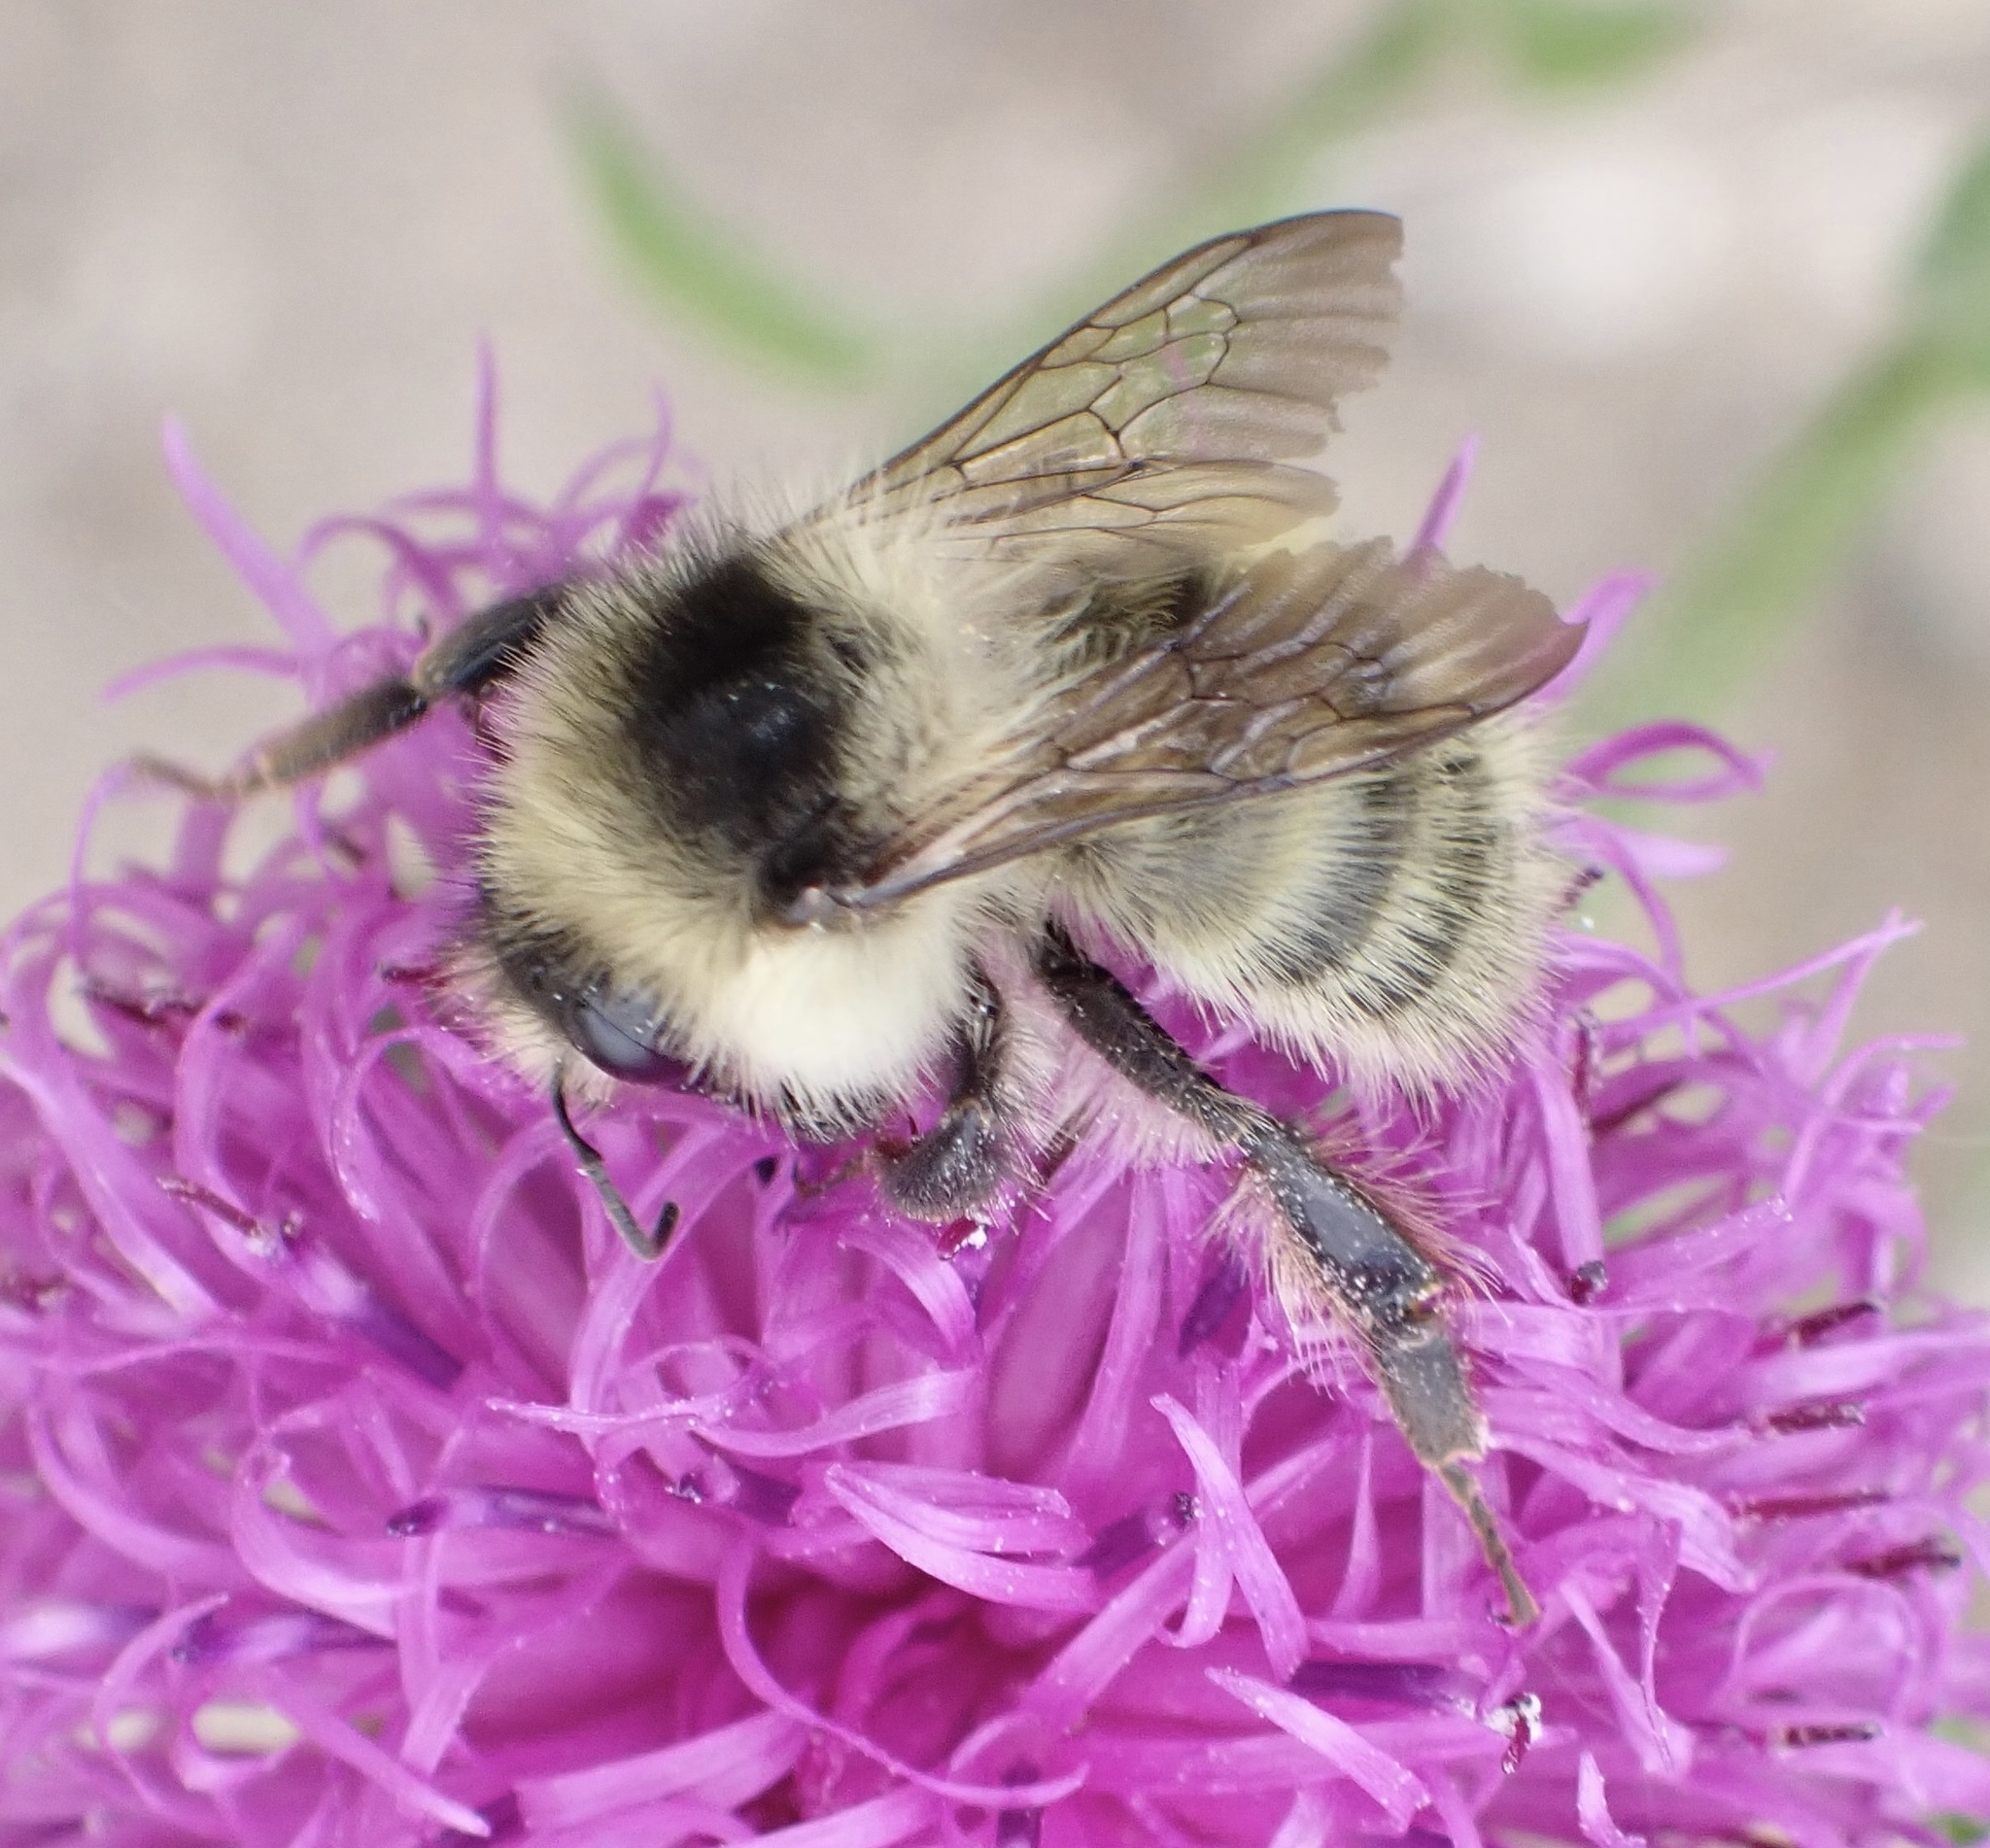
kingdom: Animalia
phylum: Arthropoda
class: Insecta
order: Hymenoptera
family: Apidae
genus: Bombus
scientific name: Bombus veteranus
